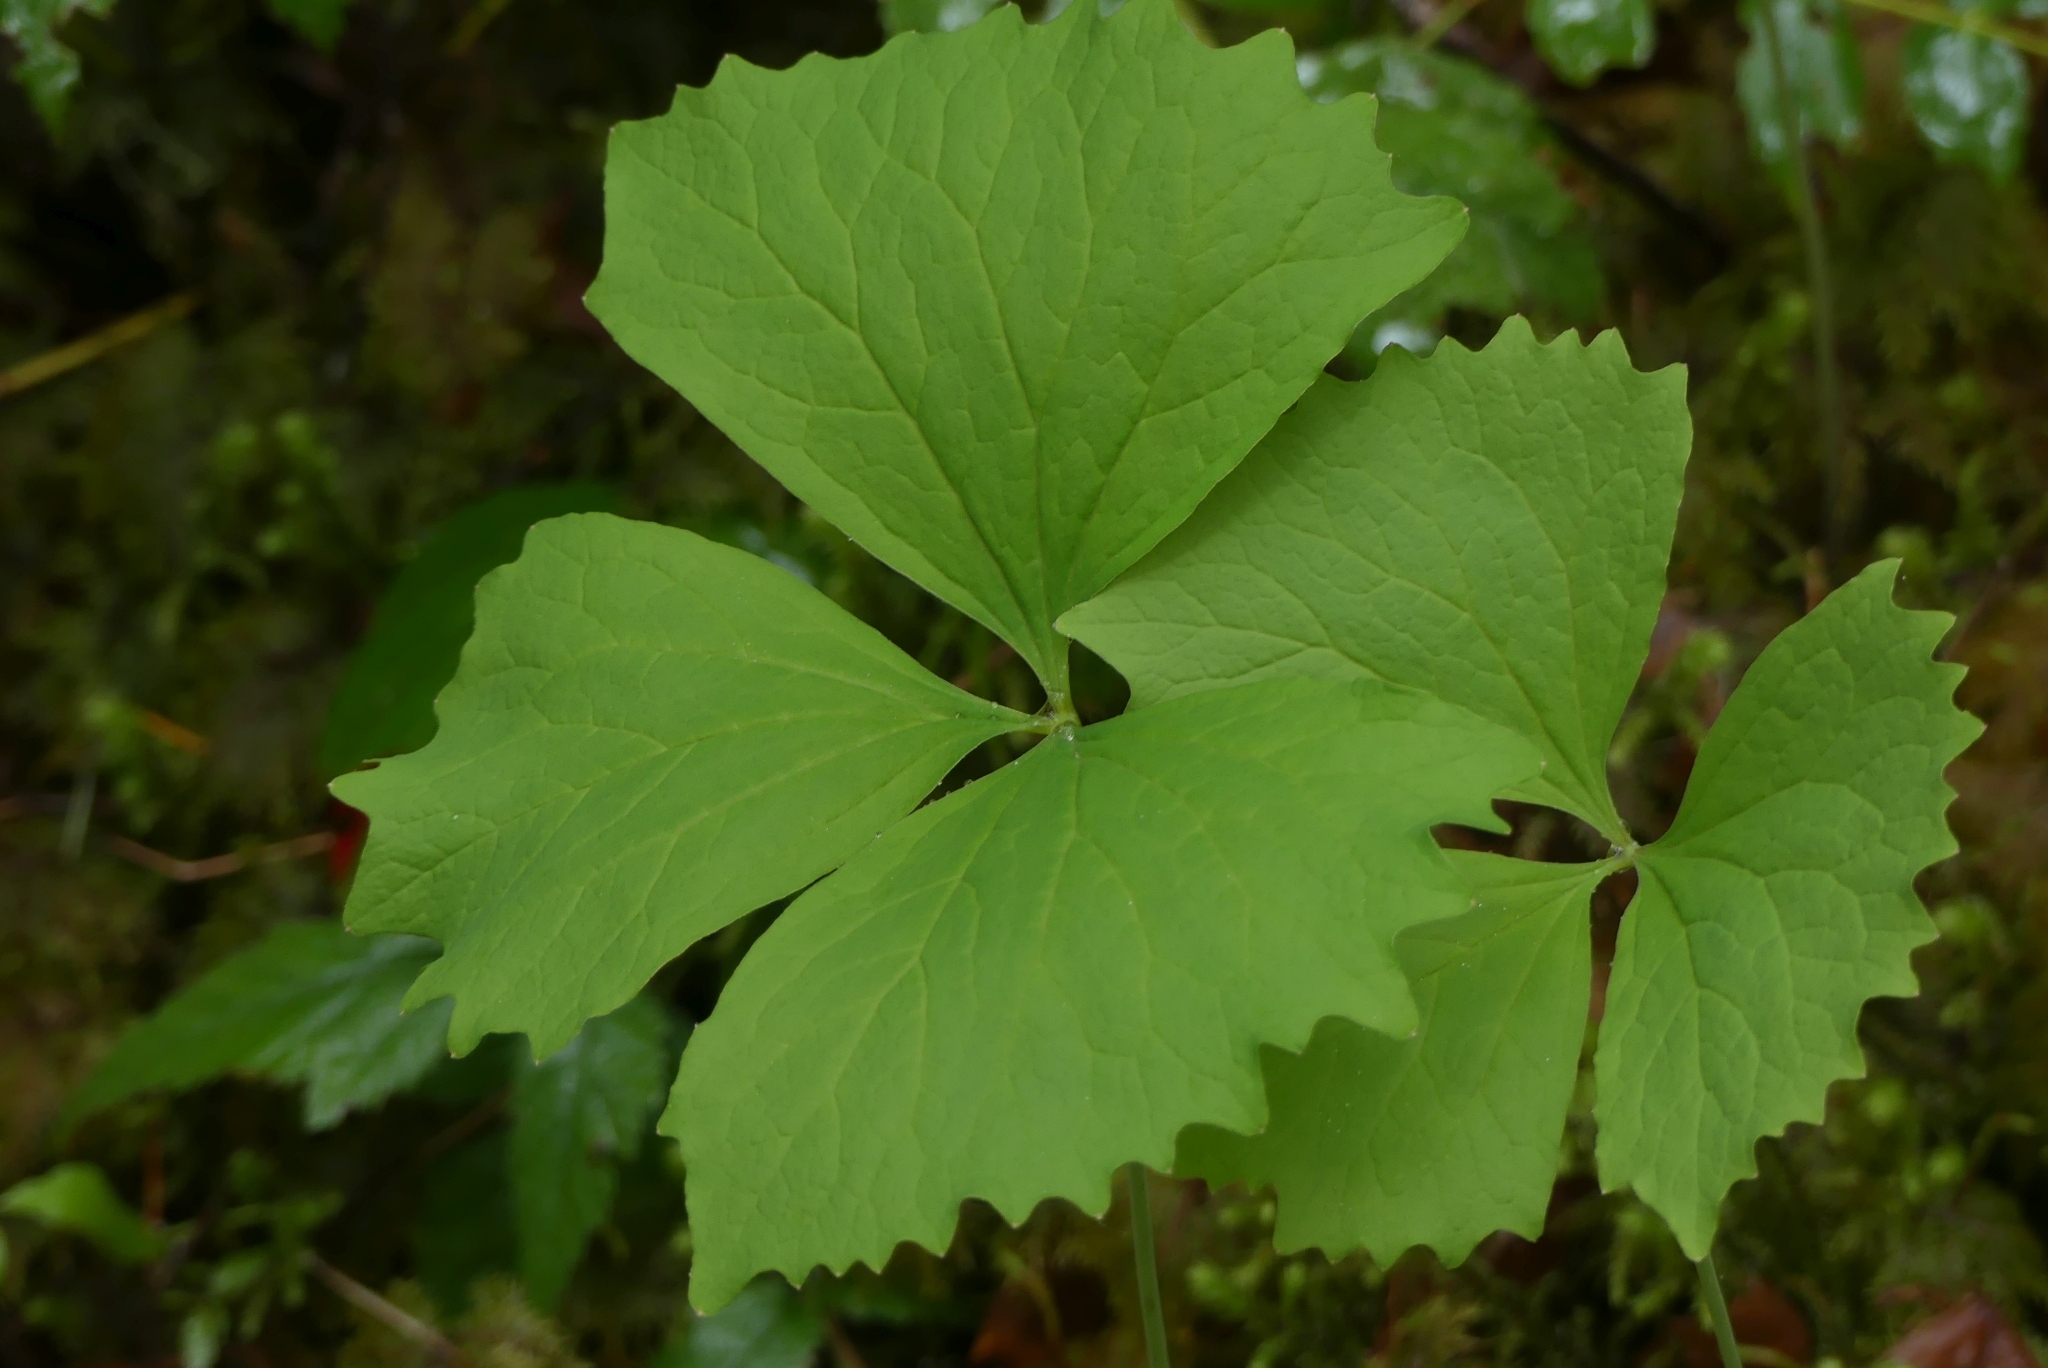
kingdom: Plantae
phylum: Tracheophyta
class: Magnoliopsida
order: Ranunculales
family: Berberidaceae
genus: Achlys
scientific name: Achlys triphylla
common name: Vanilla-leaf
